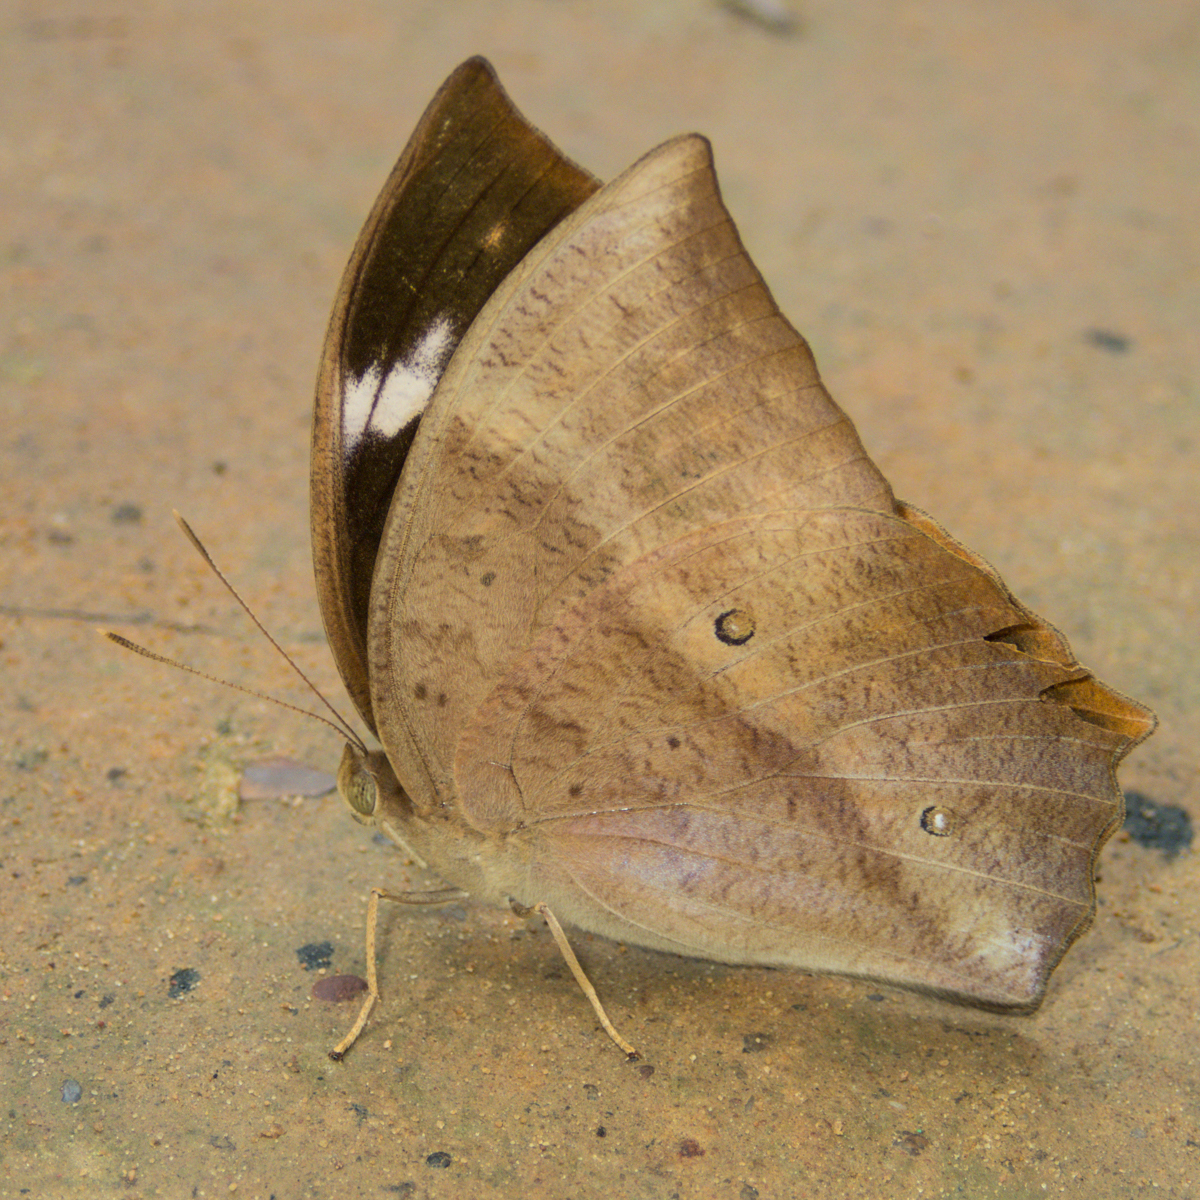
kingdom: Animalia
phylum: Arthropoda
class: Insecta
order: Lepidoptera
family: Nymphalidae
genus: Discophora
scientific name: Discophora sondaica
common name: Common duffer
